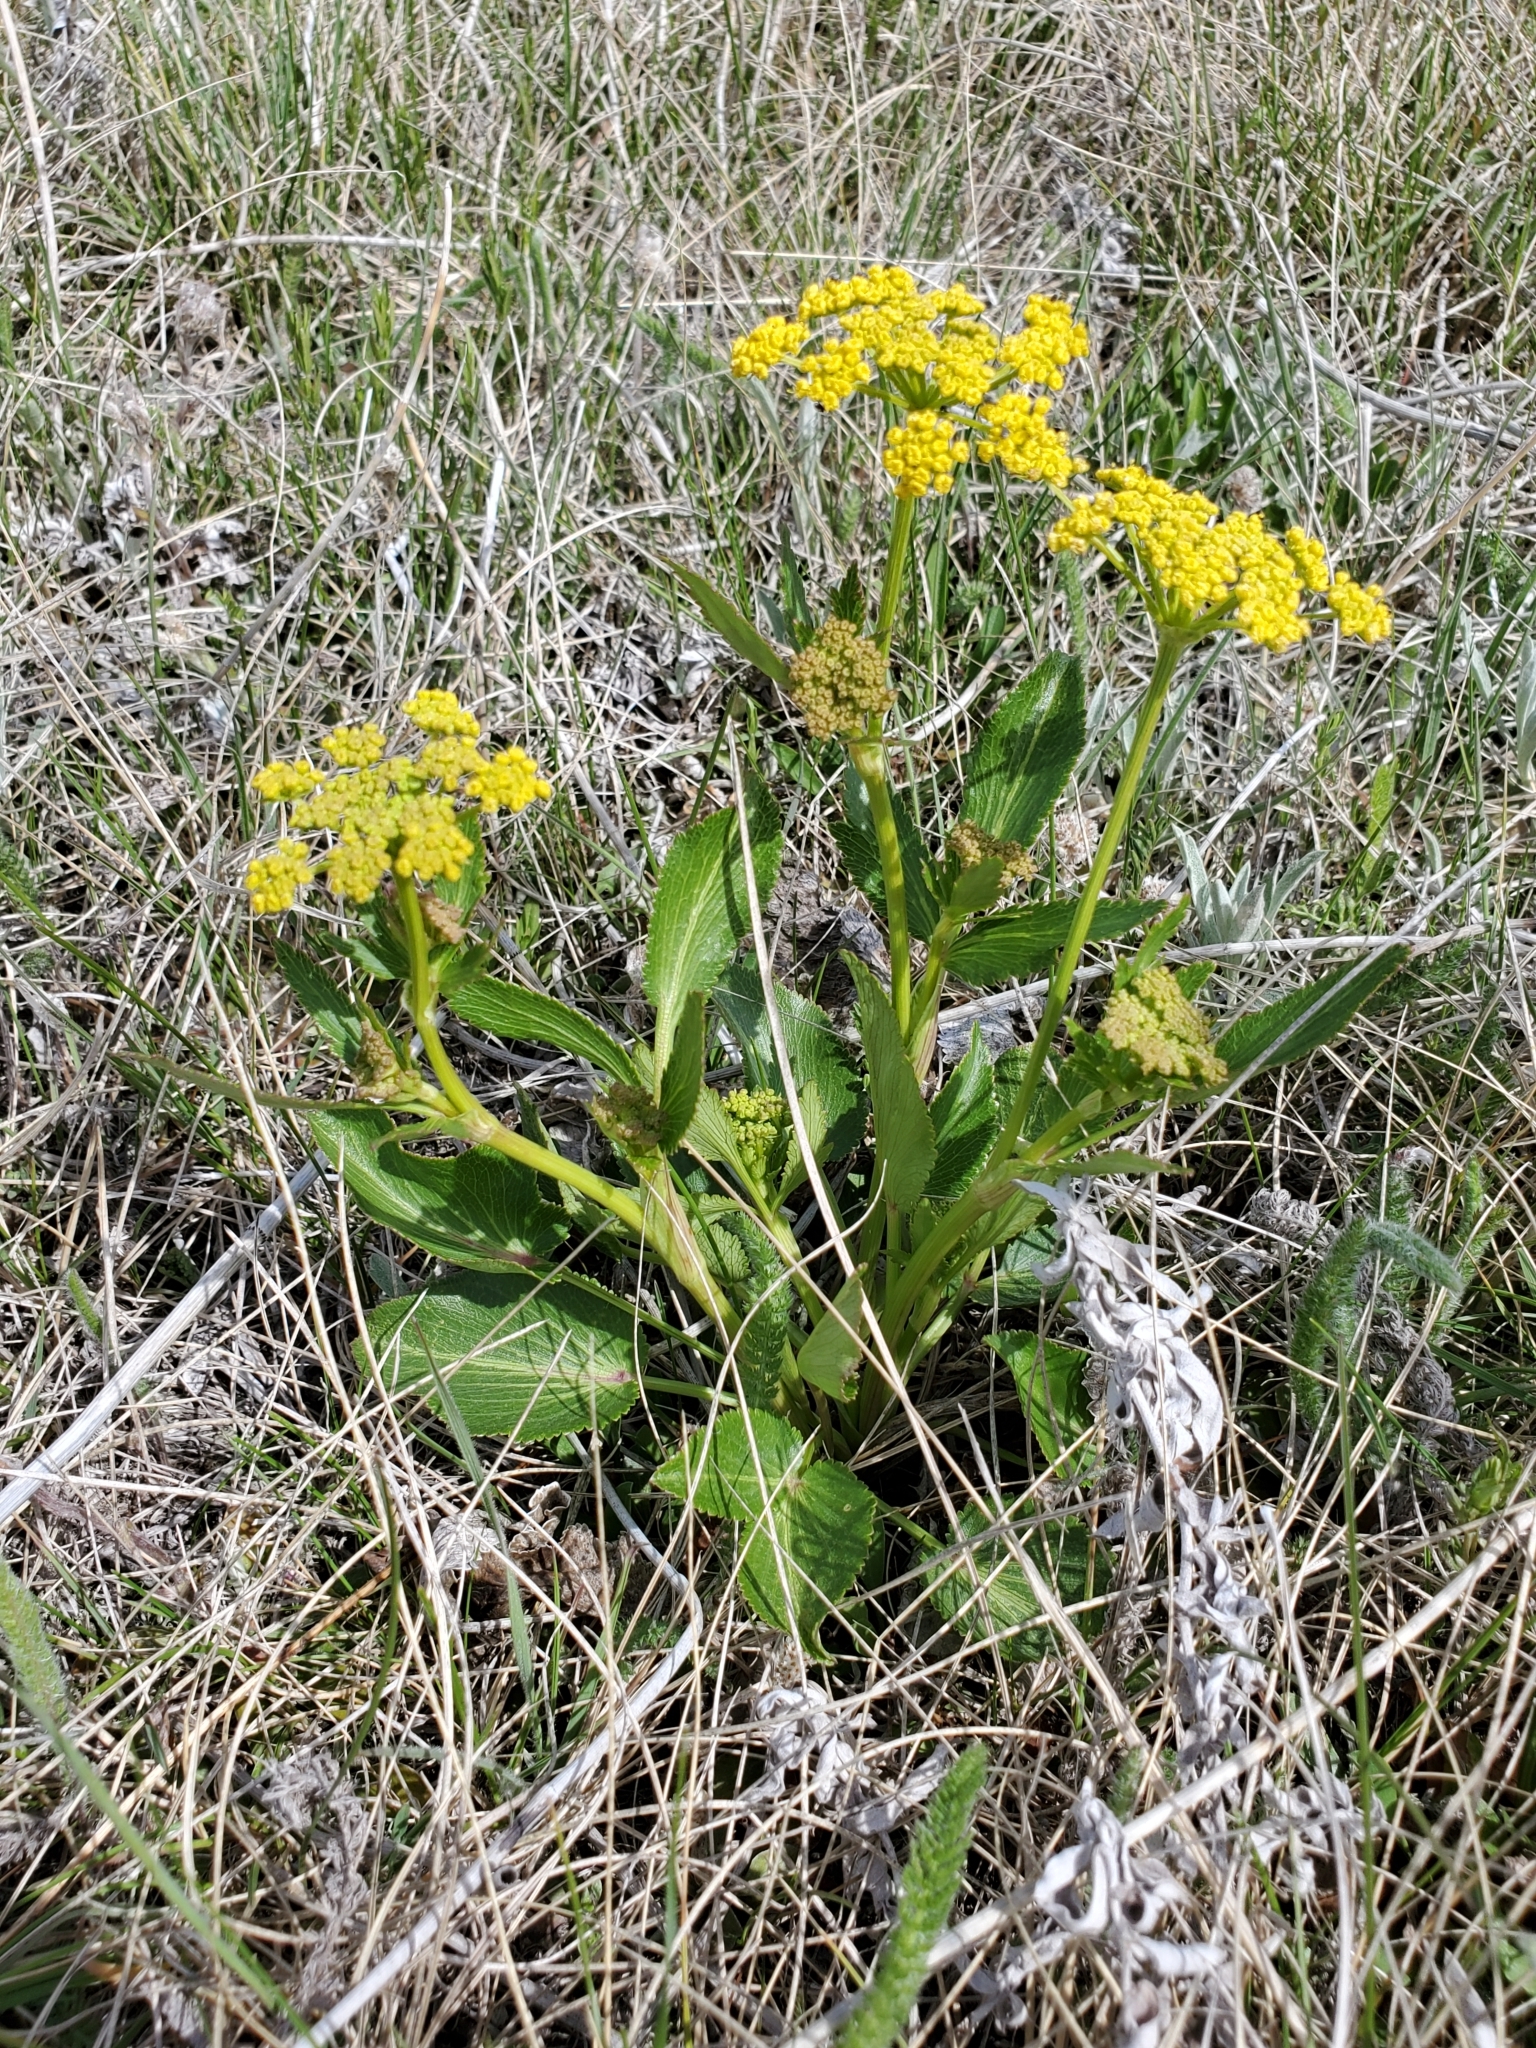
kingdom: Plantae
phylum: Tracheophyta
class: Magnoliopsida
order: Apiales
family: Apiaceae
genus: Zizia
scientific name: Zizia aptera
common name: Heart-leaved alexanders
